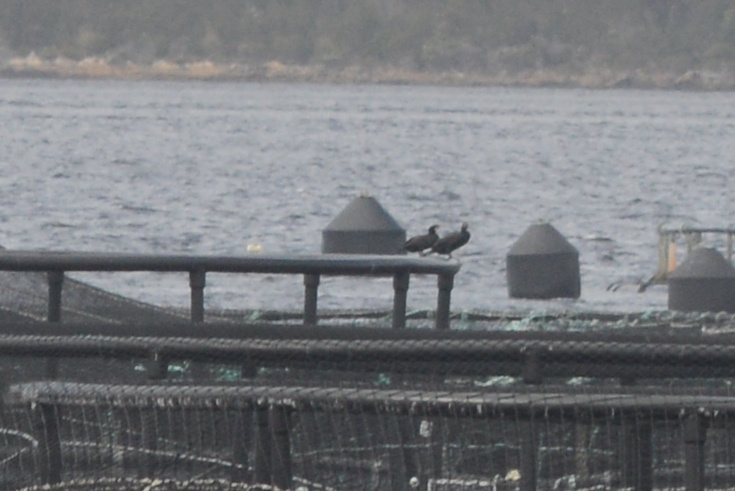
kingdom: Animalia
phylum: Chordata
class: Aves
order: Suliformes
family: Phalacrocoracidae
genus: Phalacrocorax
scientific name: Phalacrocorax carbo
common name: Great cormorant
